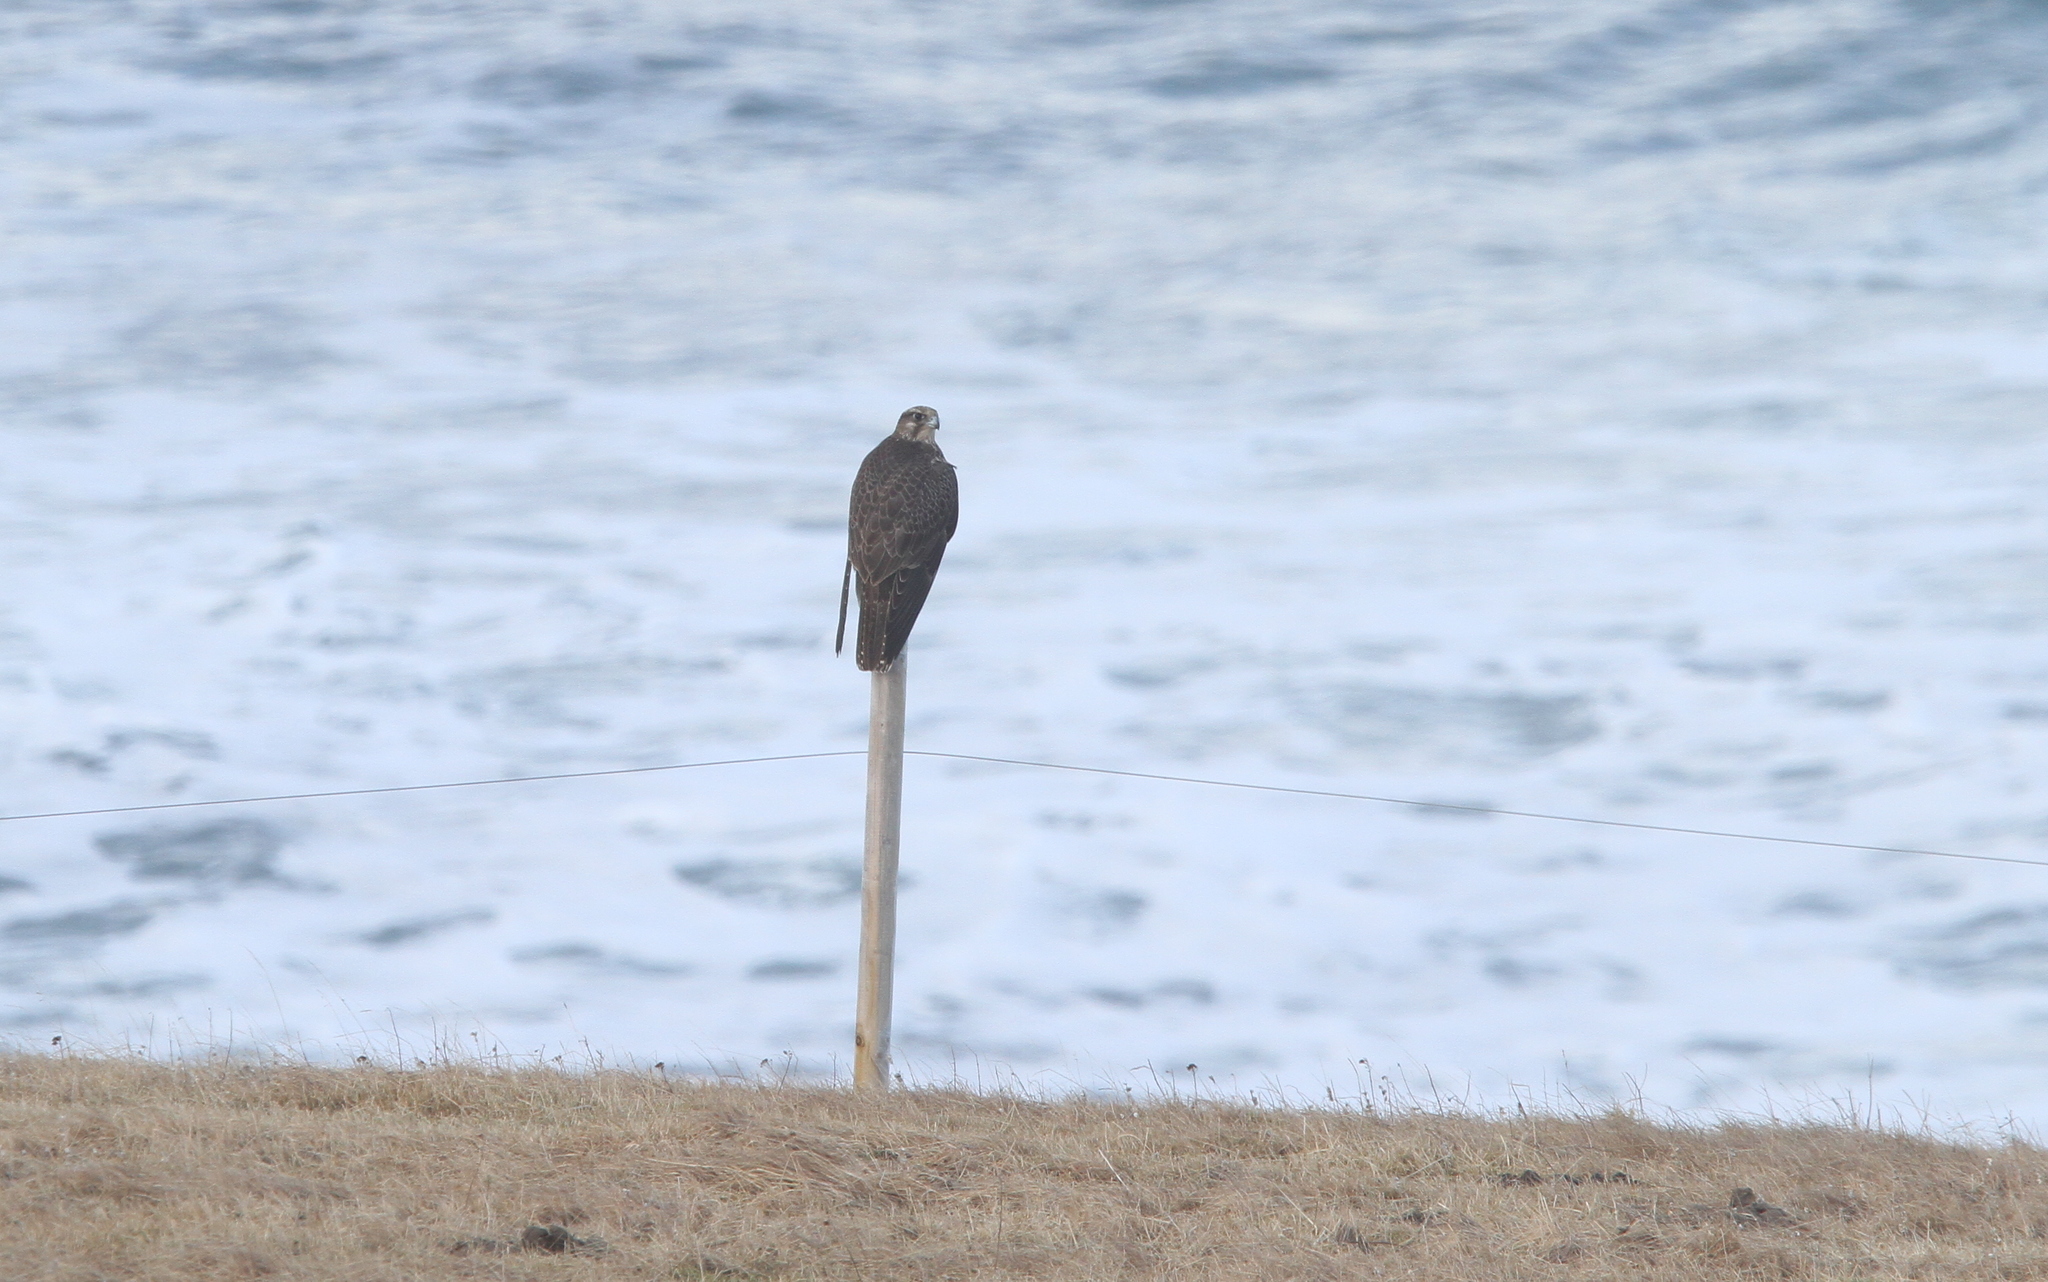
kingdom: Animalia
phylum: Chordata
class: Aves
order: Falconiformes
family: Falconidae
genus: Falco
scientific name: Falco rusticolus
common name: Gyrfalcon
